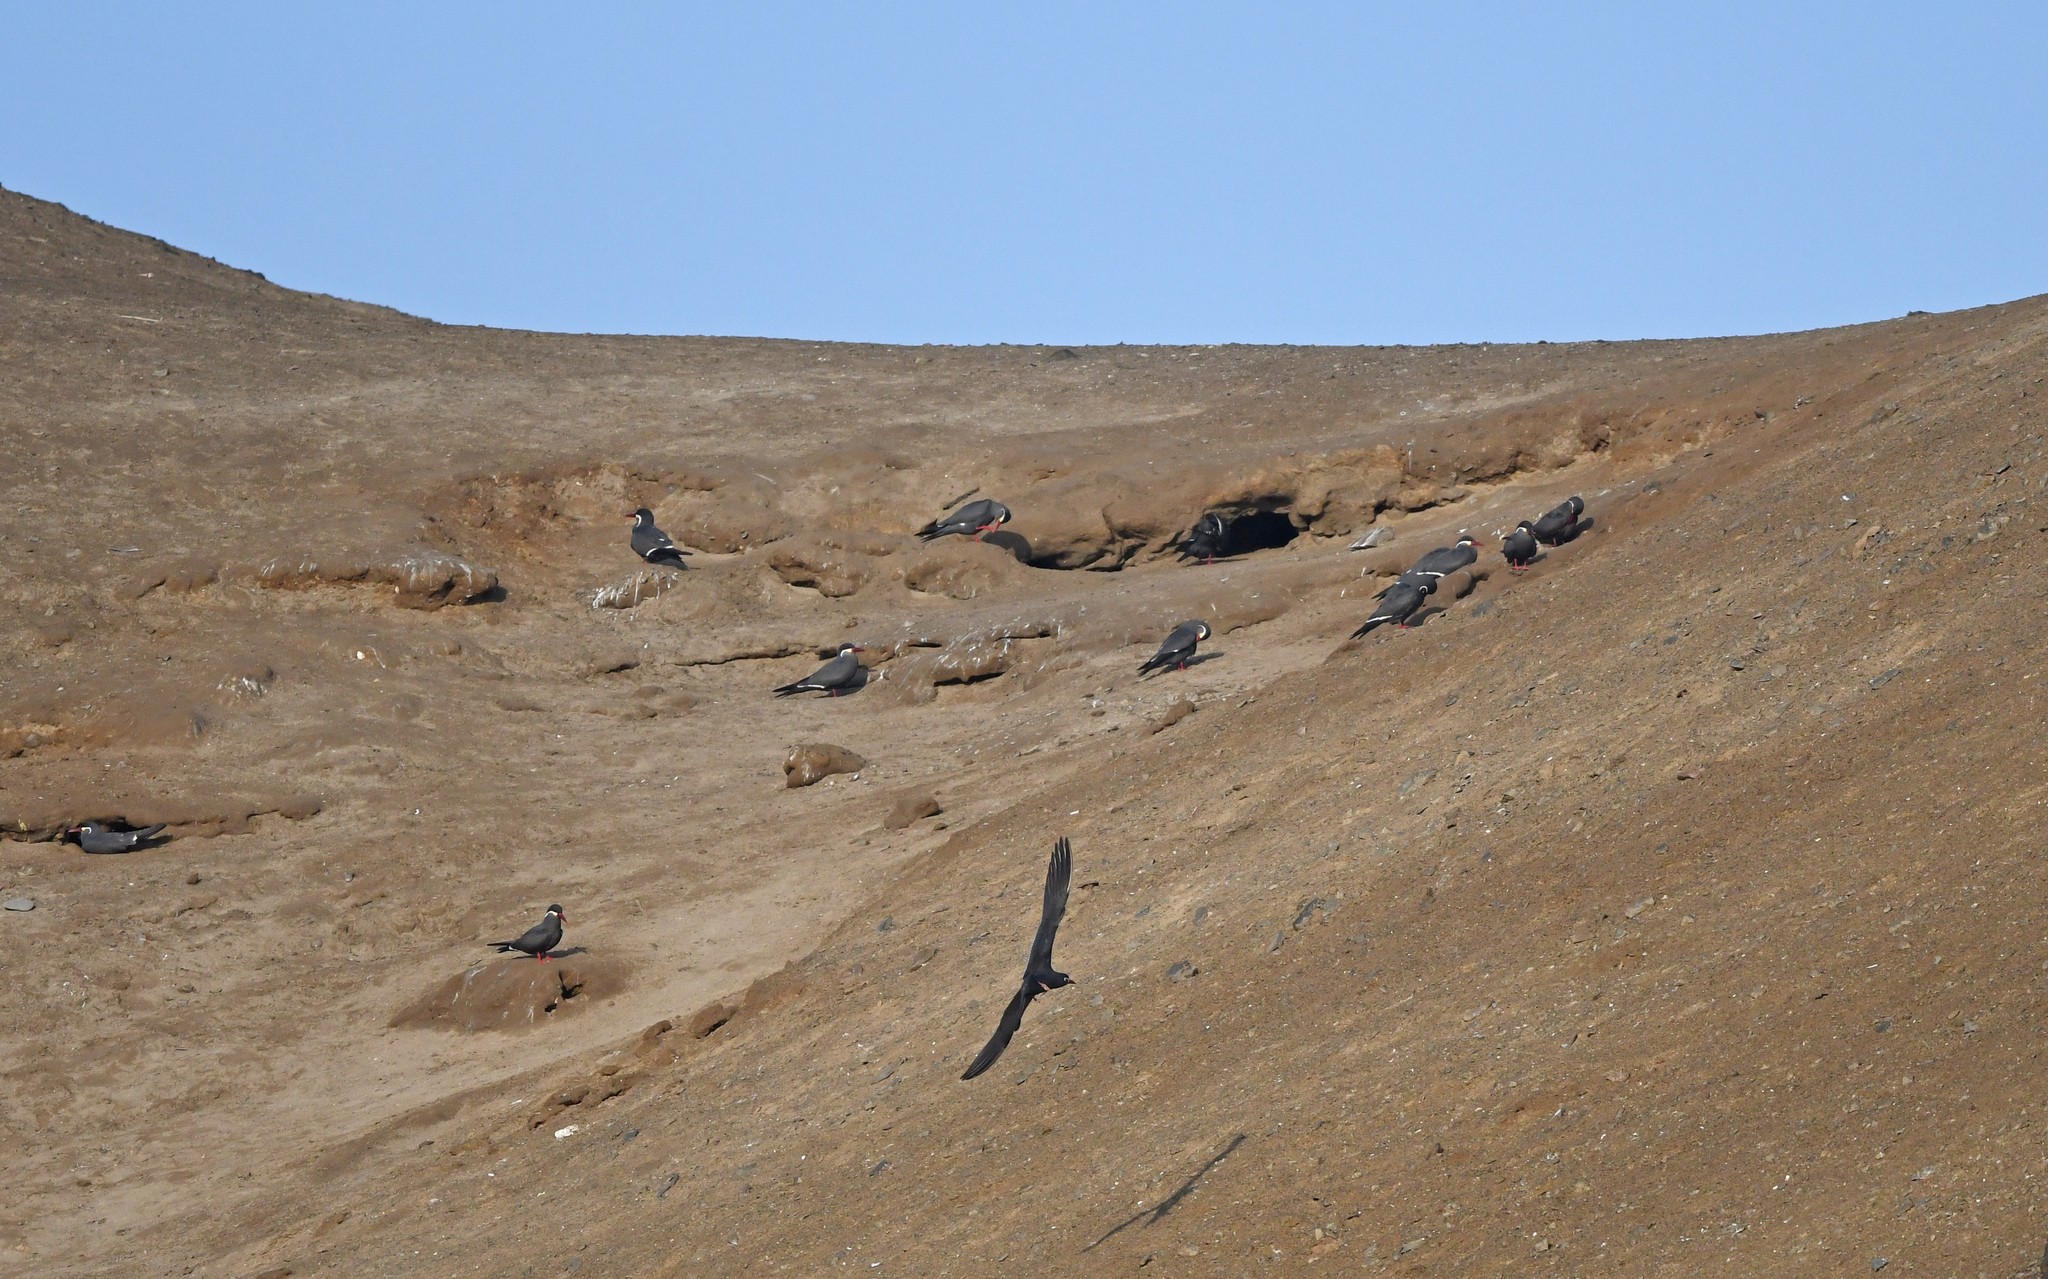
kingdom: Animalia
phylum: Chordata
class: Aves
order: Charadriiformes
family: Laridae
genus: Larosterna
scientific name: Larosterna inca
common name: Inca tern
